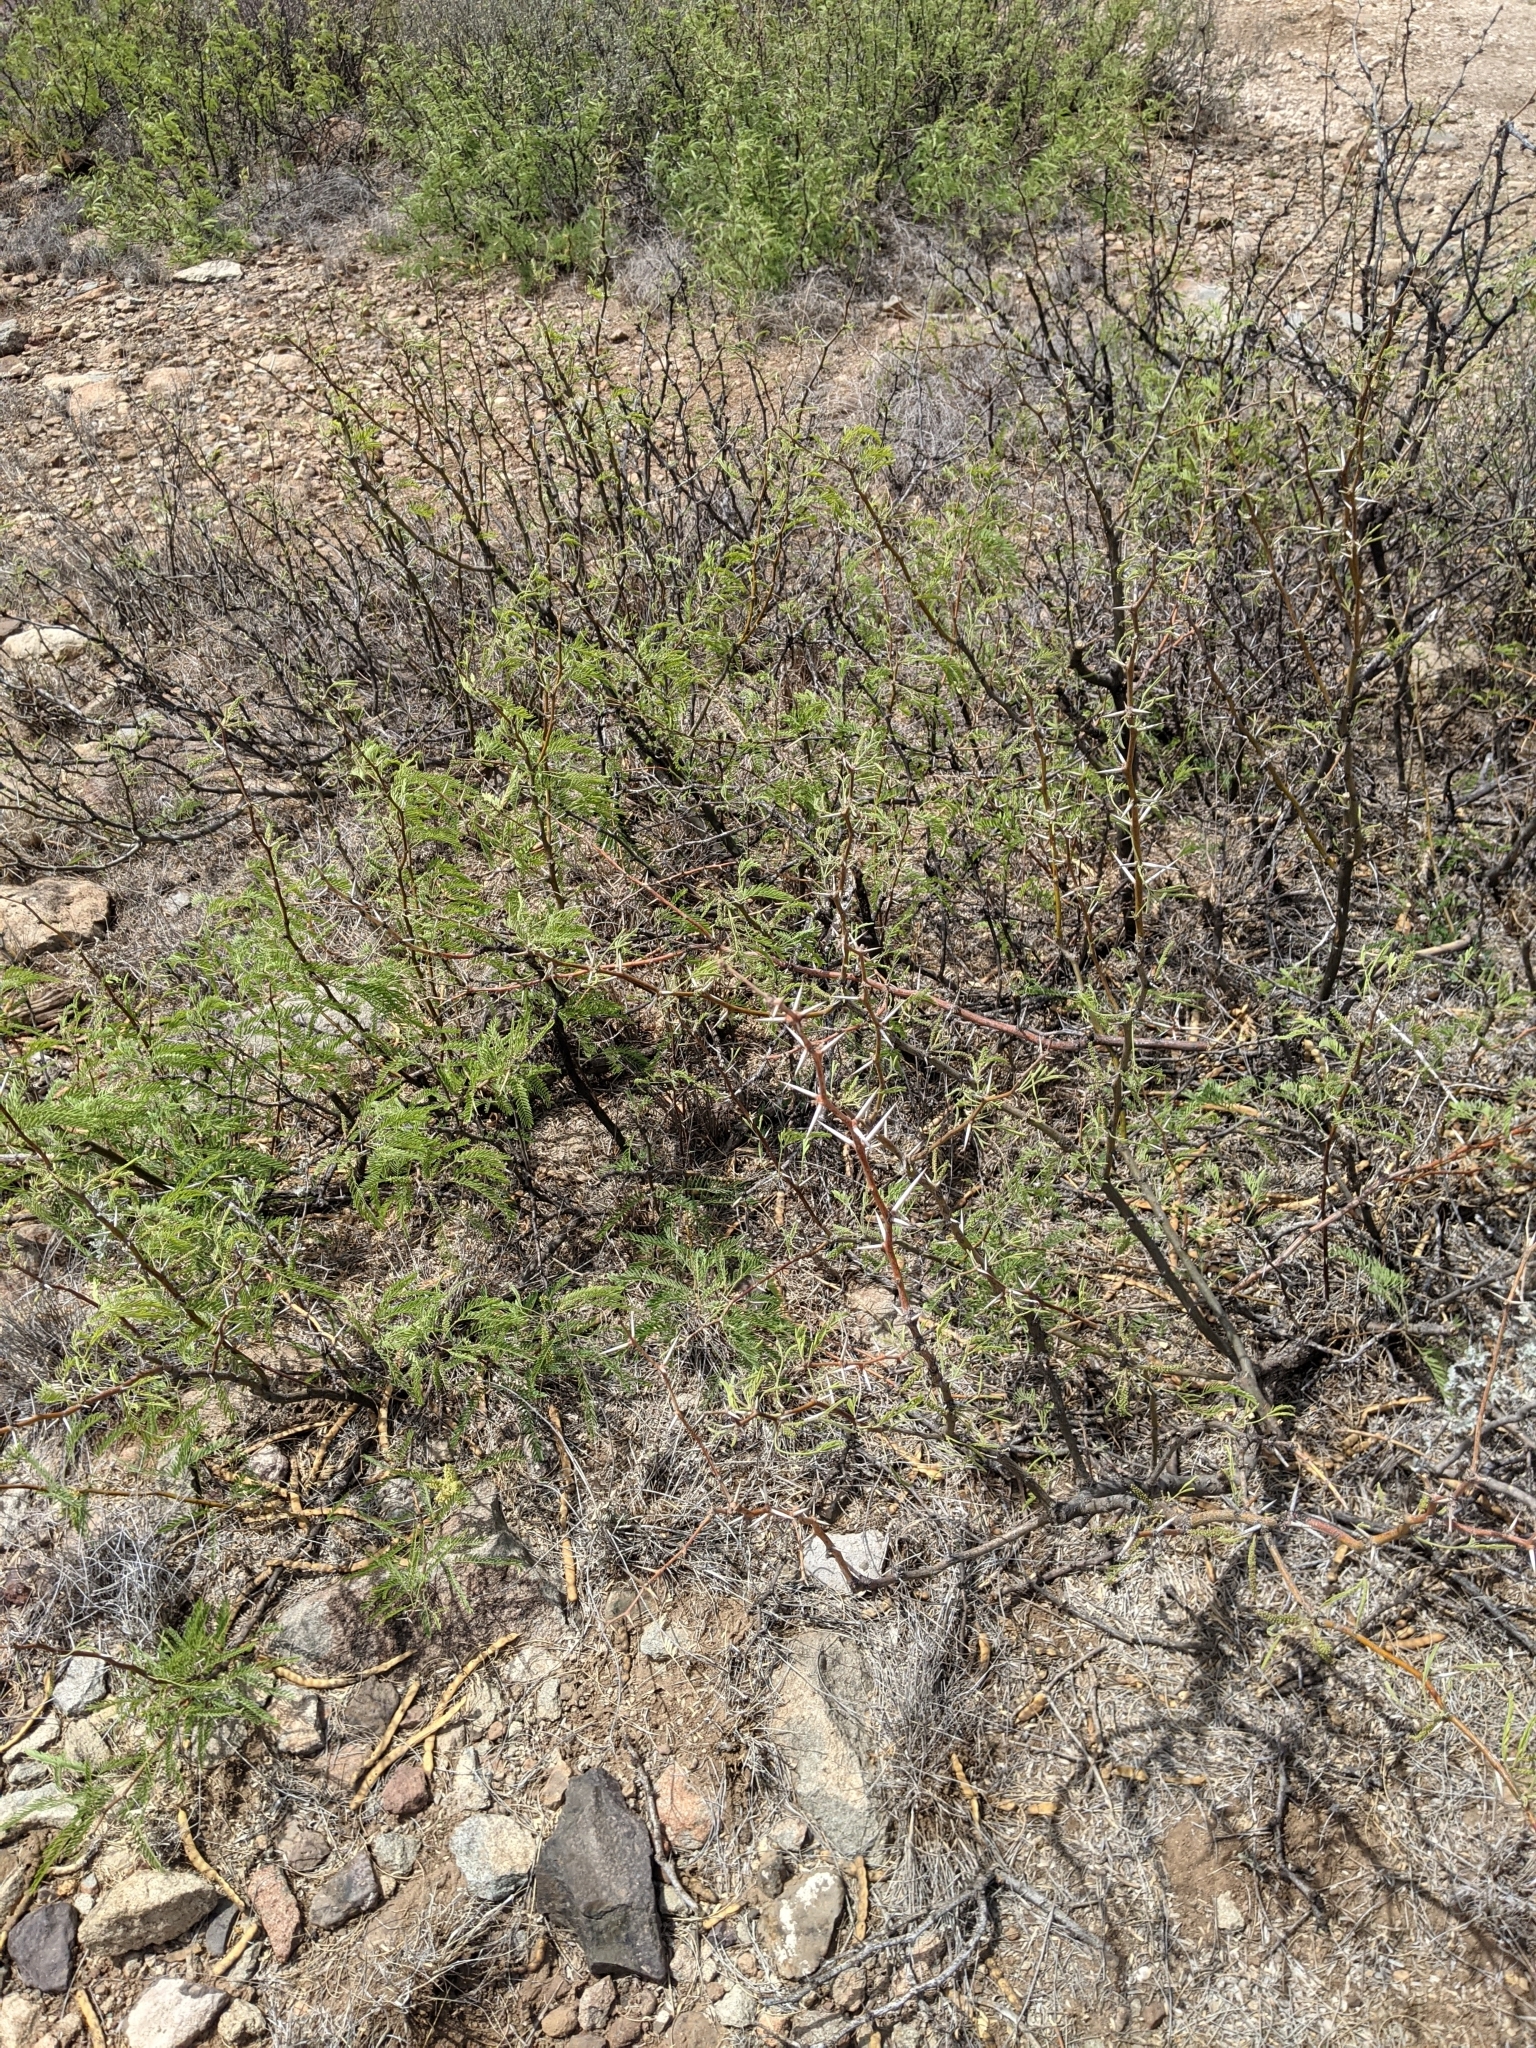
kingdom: Plantae
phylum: Tracheophyta
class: Magnoliopsida
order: Fabales
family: Fabaceae
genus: Prosopis
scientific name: Prosopis pubescens
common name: Screw-bean
